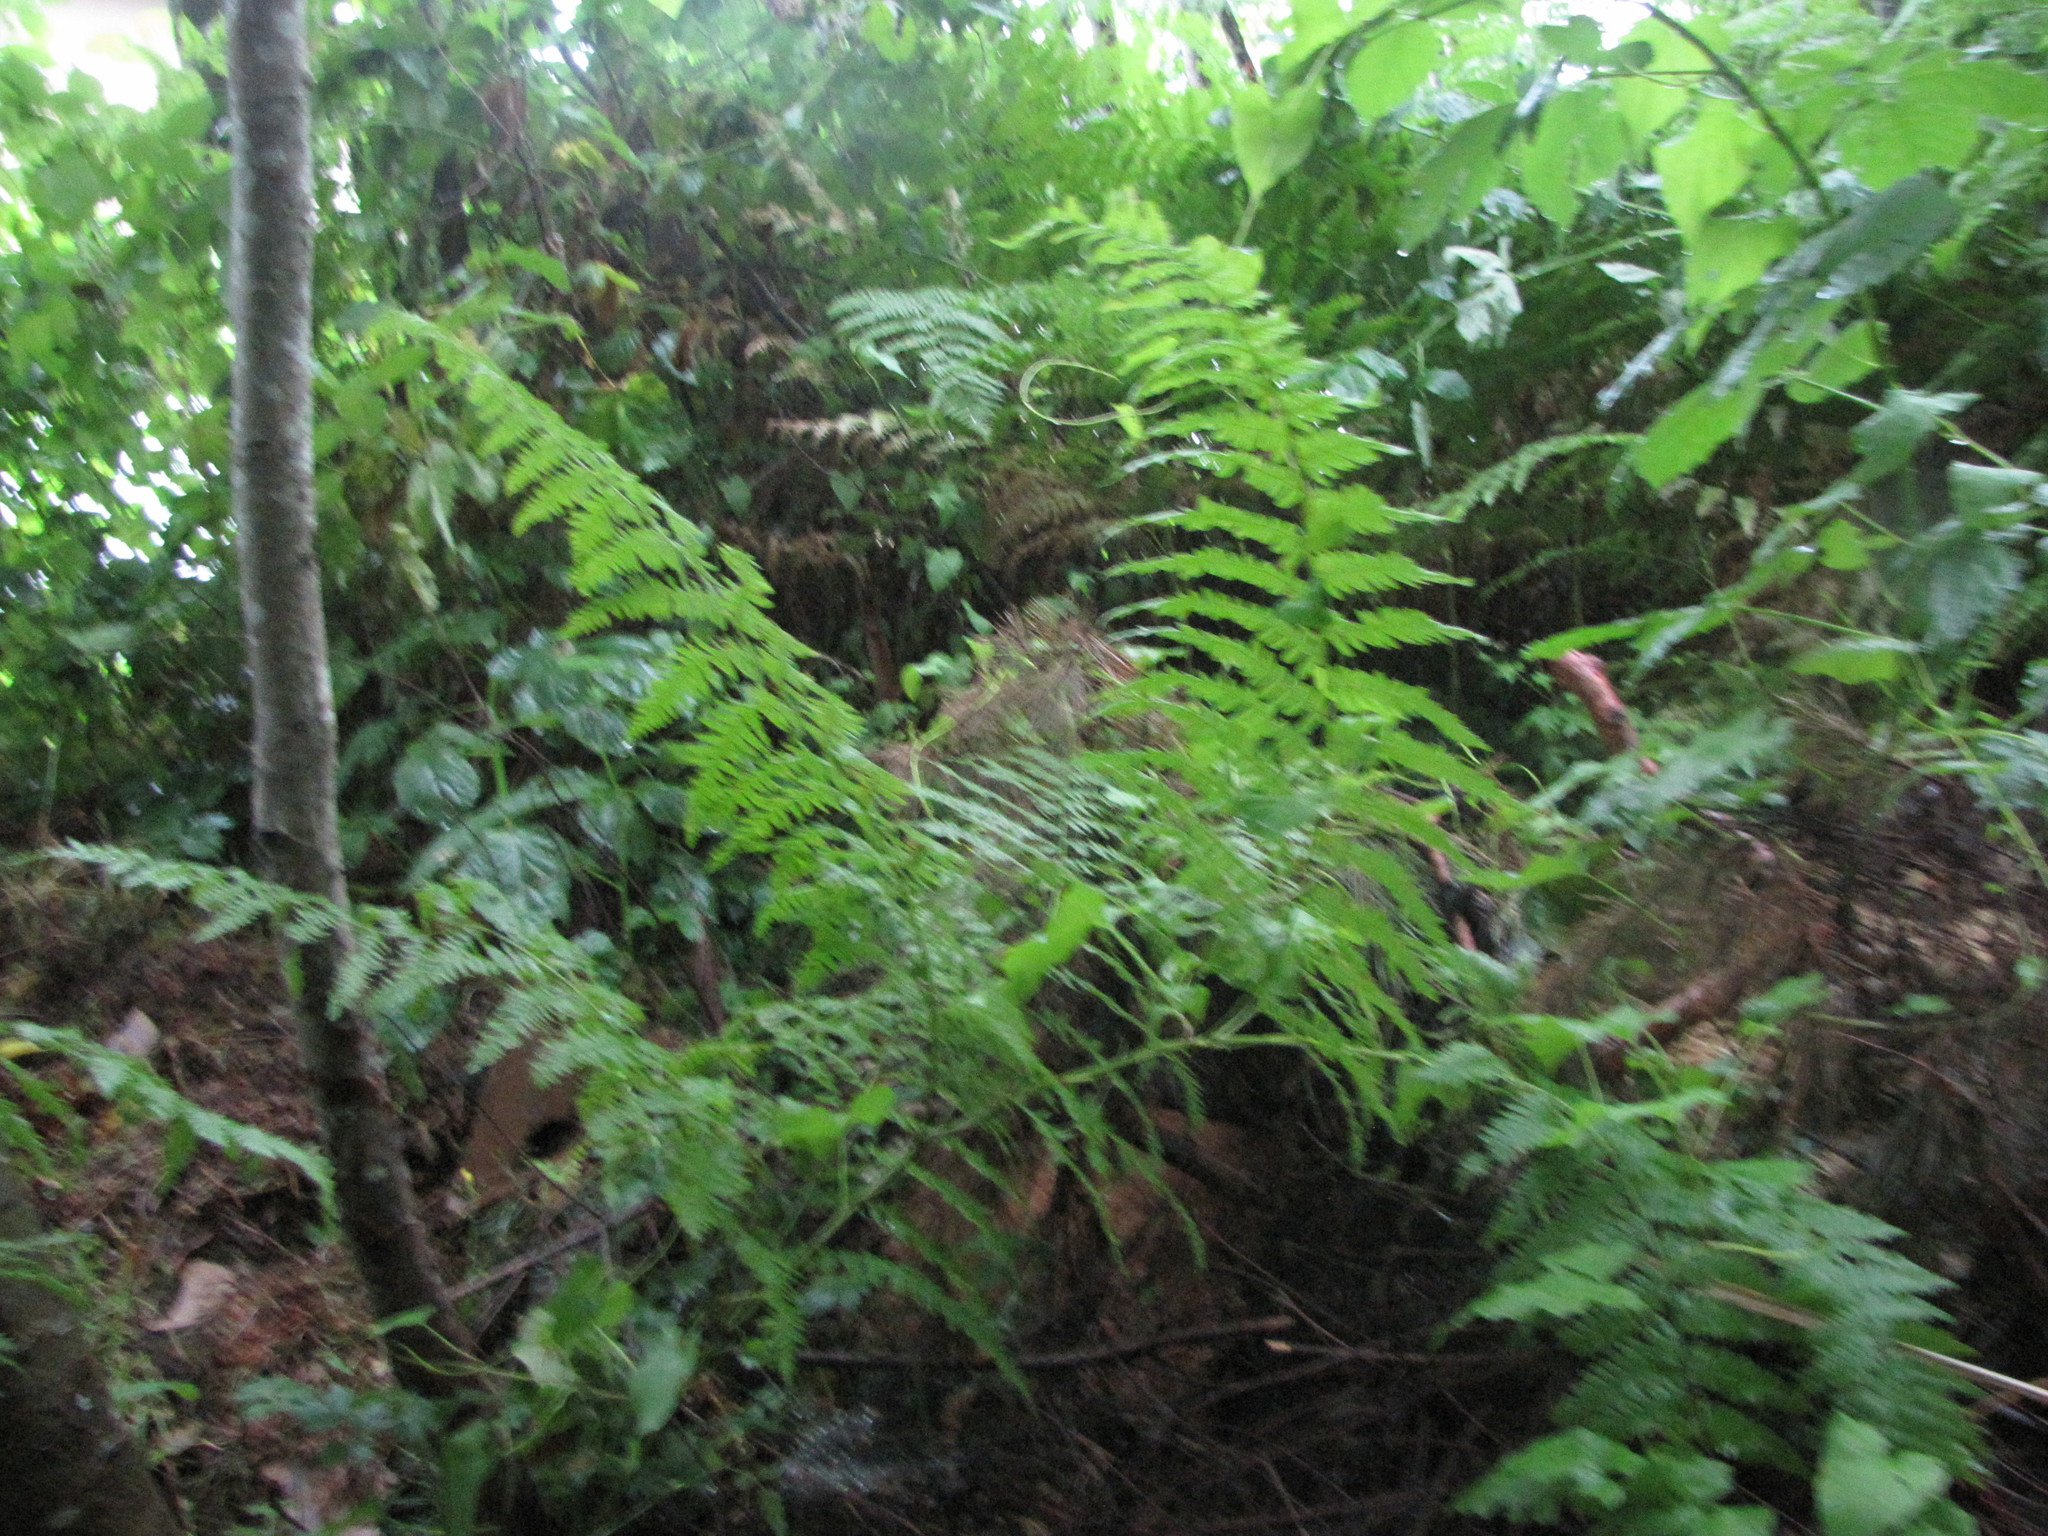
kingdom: Plantae
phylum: Tracheophyta
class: Polypodiopsida
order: Polypodiales
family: Dennstaedtiaceae
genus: Pteridium
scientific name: Pteridium aquilinum
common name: Bracken
